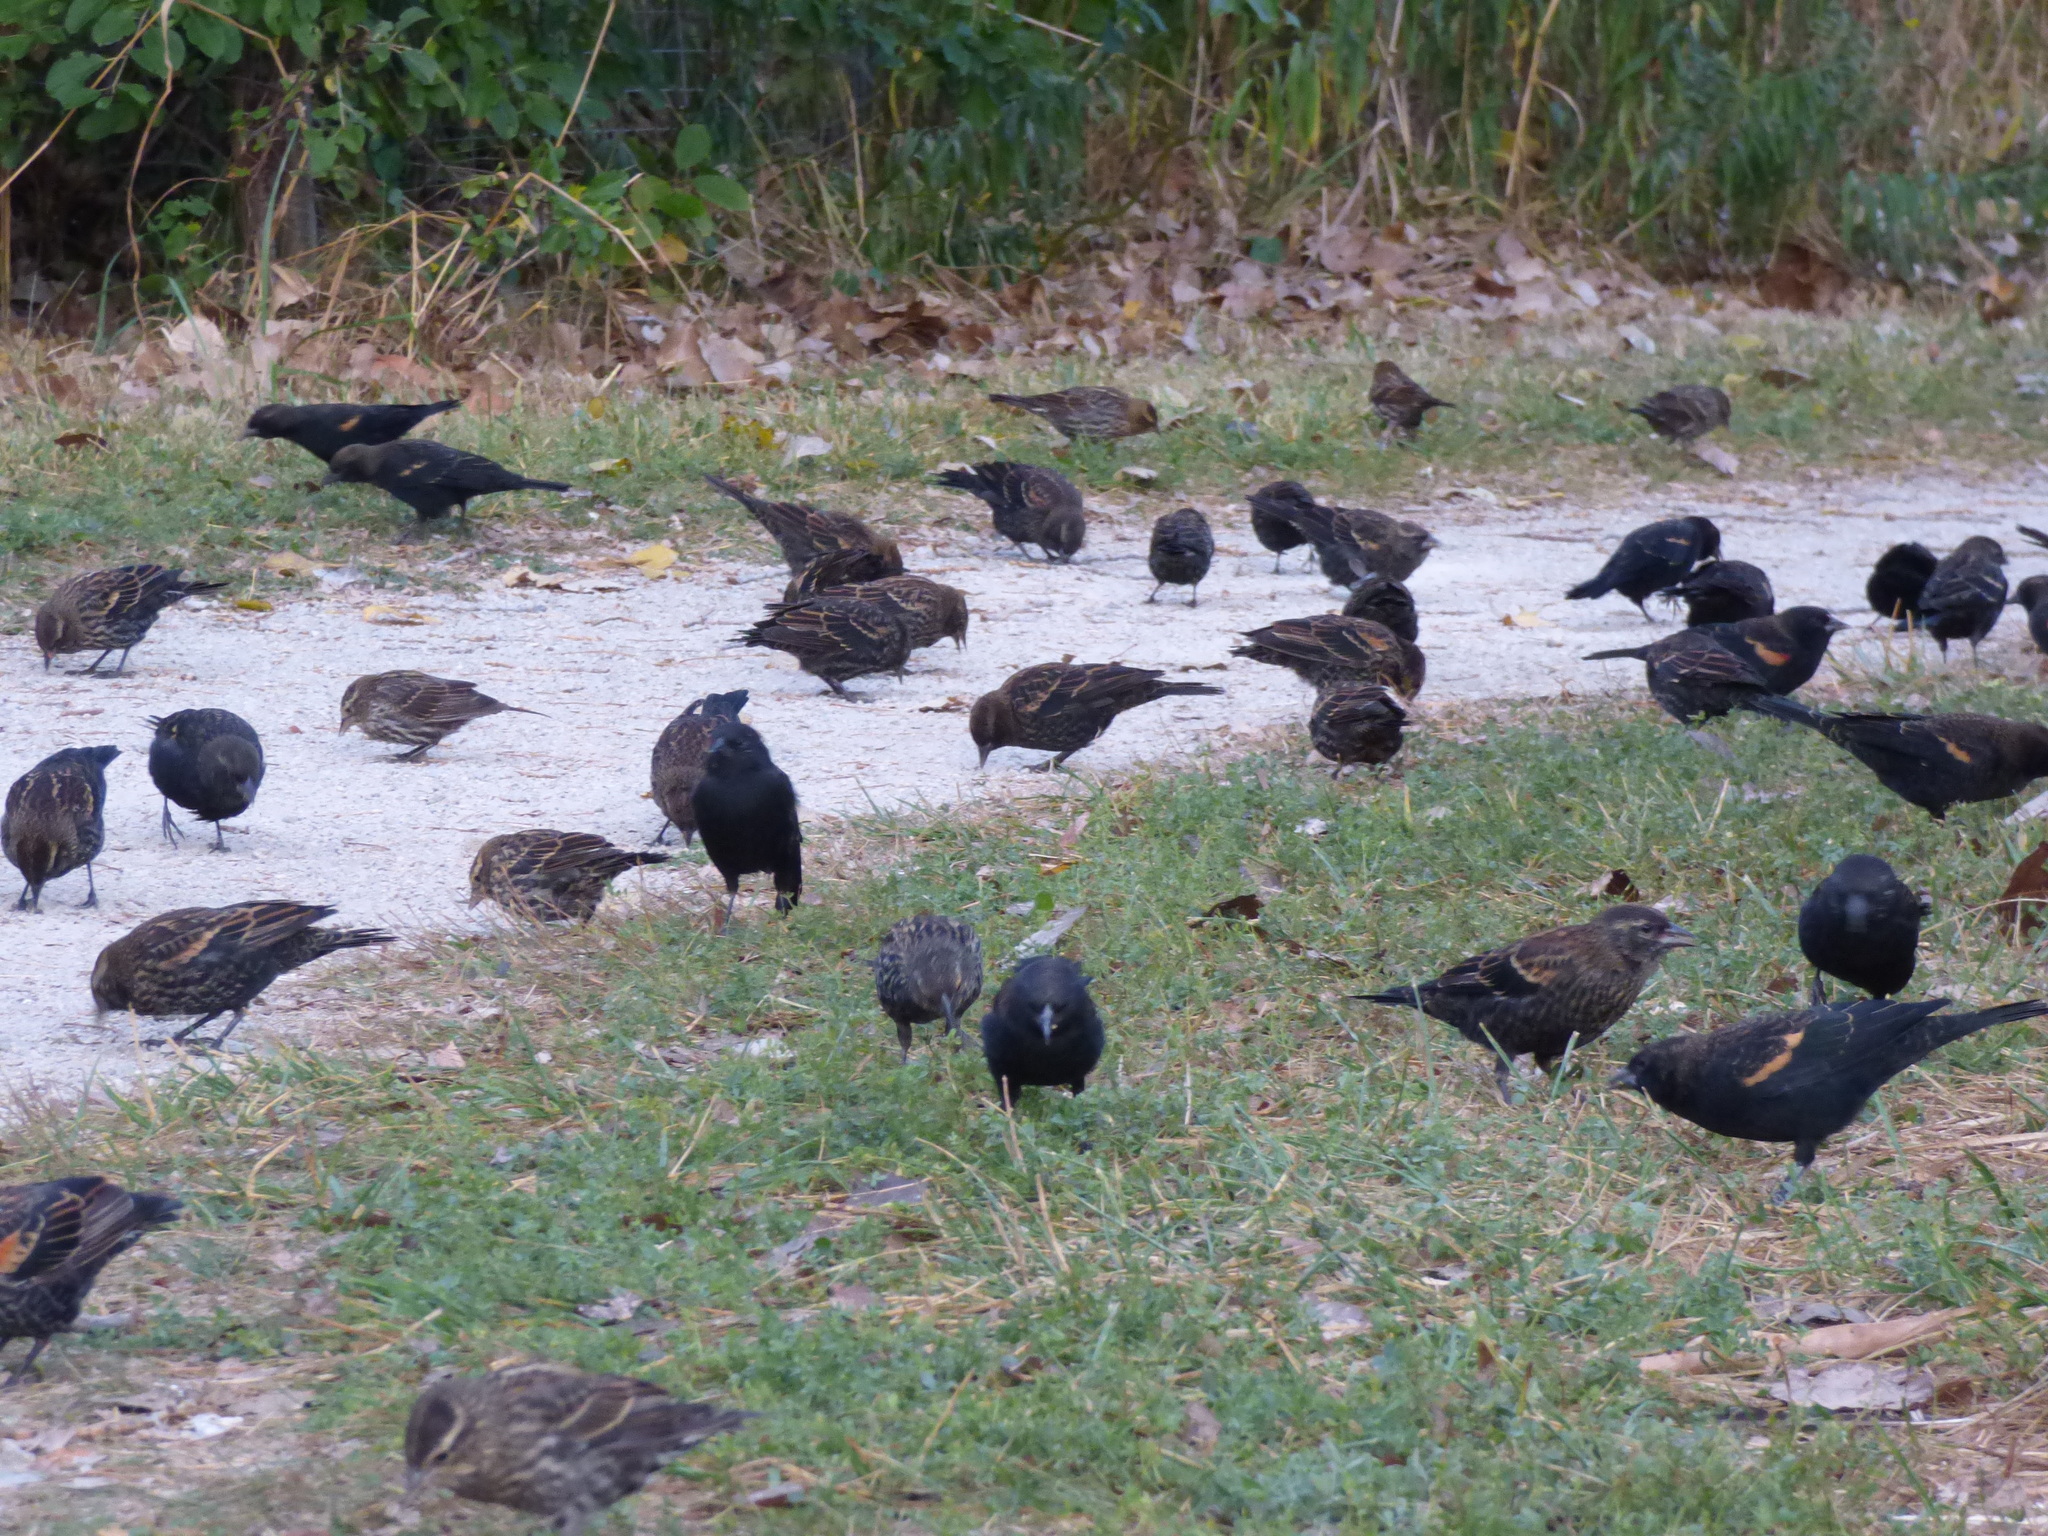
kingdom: Animalia
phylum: Chordata
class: Aves
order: Passeriformes
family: Icteridae
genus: Agelaius
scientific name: Agelaius phoeniceus
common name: Red-winged blackbird
